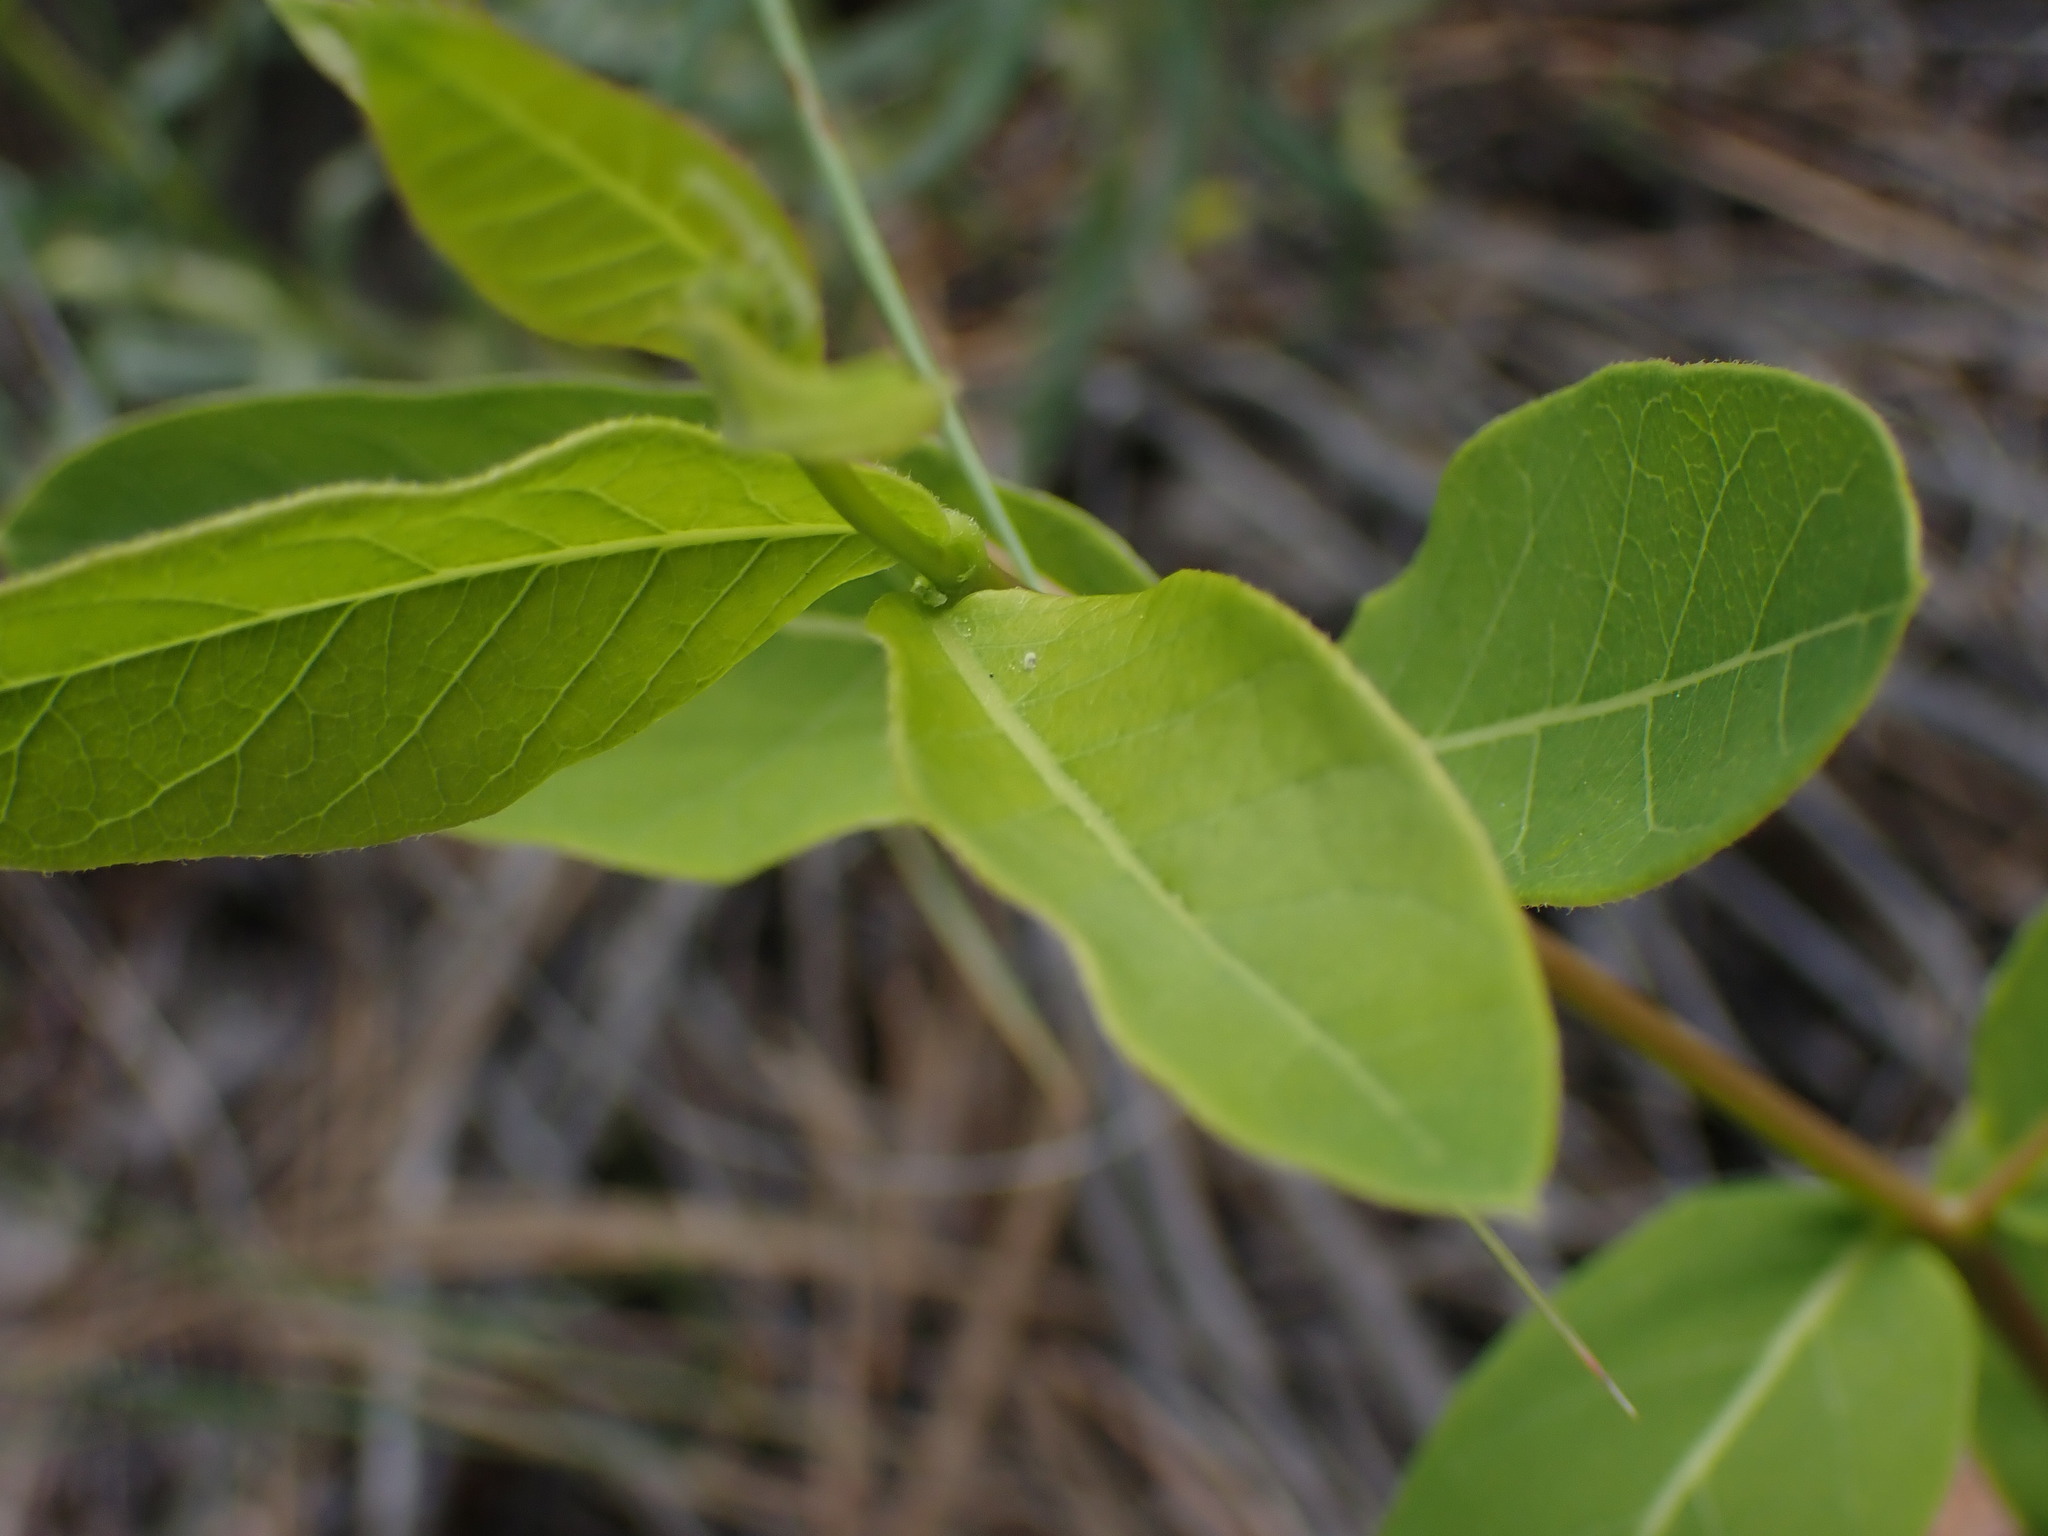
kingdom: Plantae
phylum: Tracheophyta
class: Magnoliopsida
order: Gentianales
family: Apocynaceae
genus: Apocynum
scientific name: Apocynum androsaemifolium
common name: Spreading dogbane
